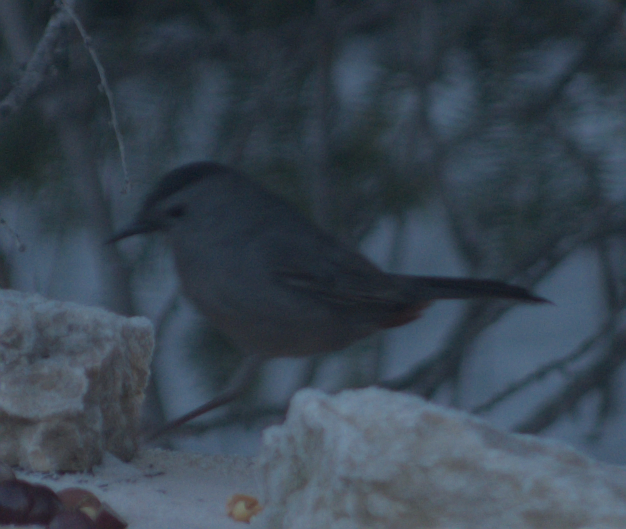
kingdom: Animalia
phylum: Chordata
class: Aves
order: Passeriformes
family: Mimidae
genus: Dumetella
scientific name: Dumetella carolinensis
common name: Gray catbird
